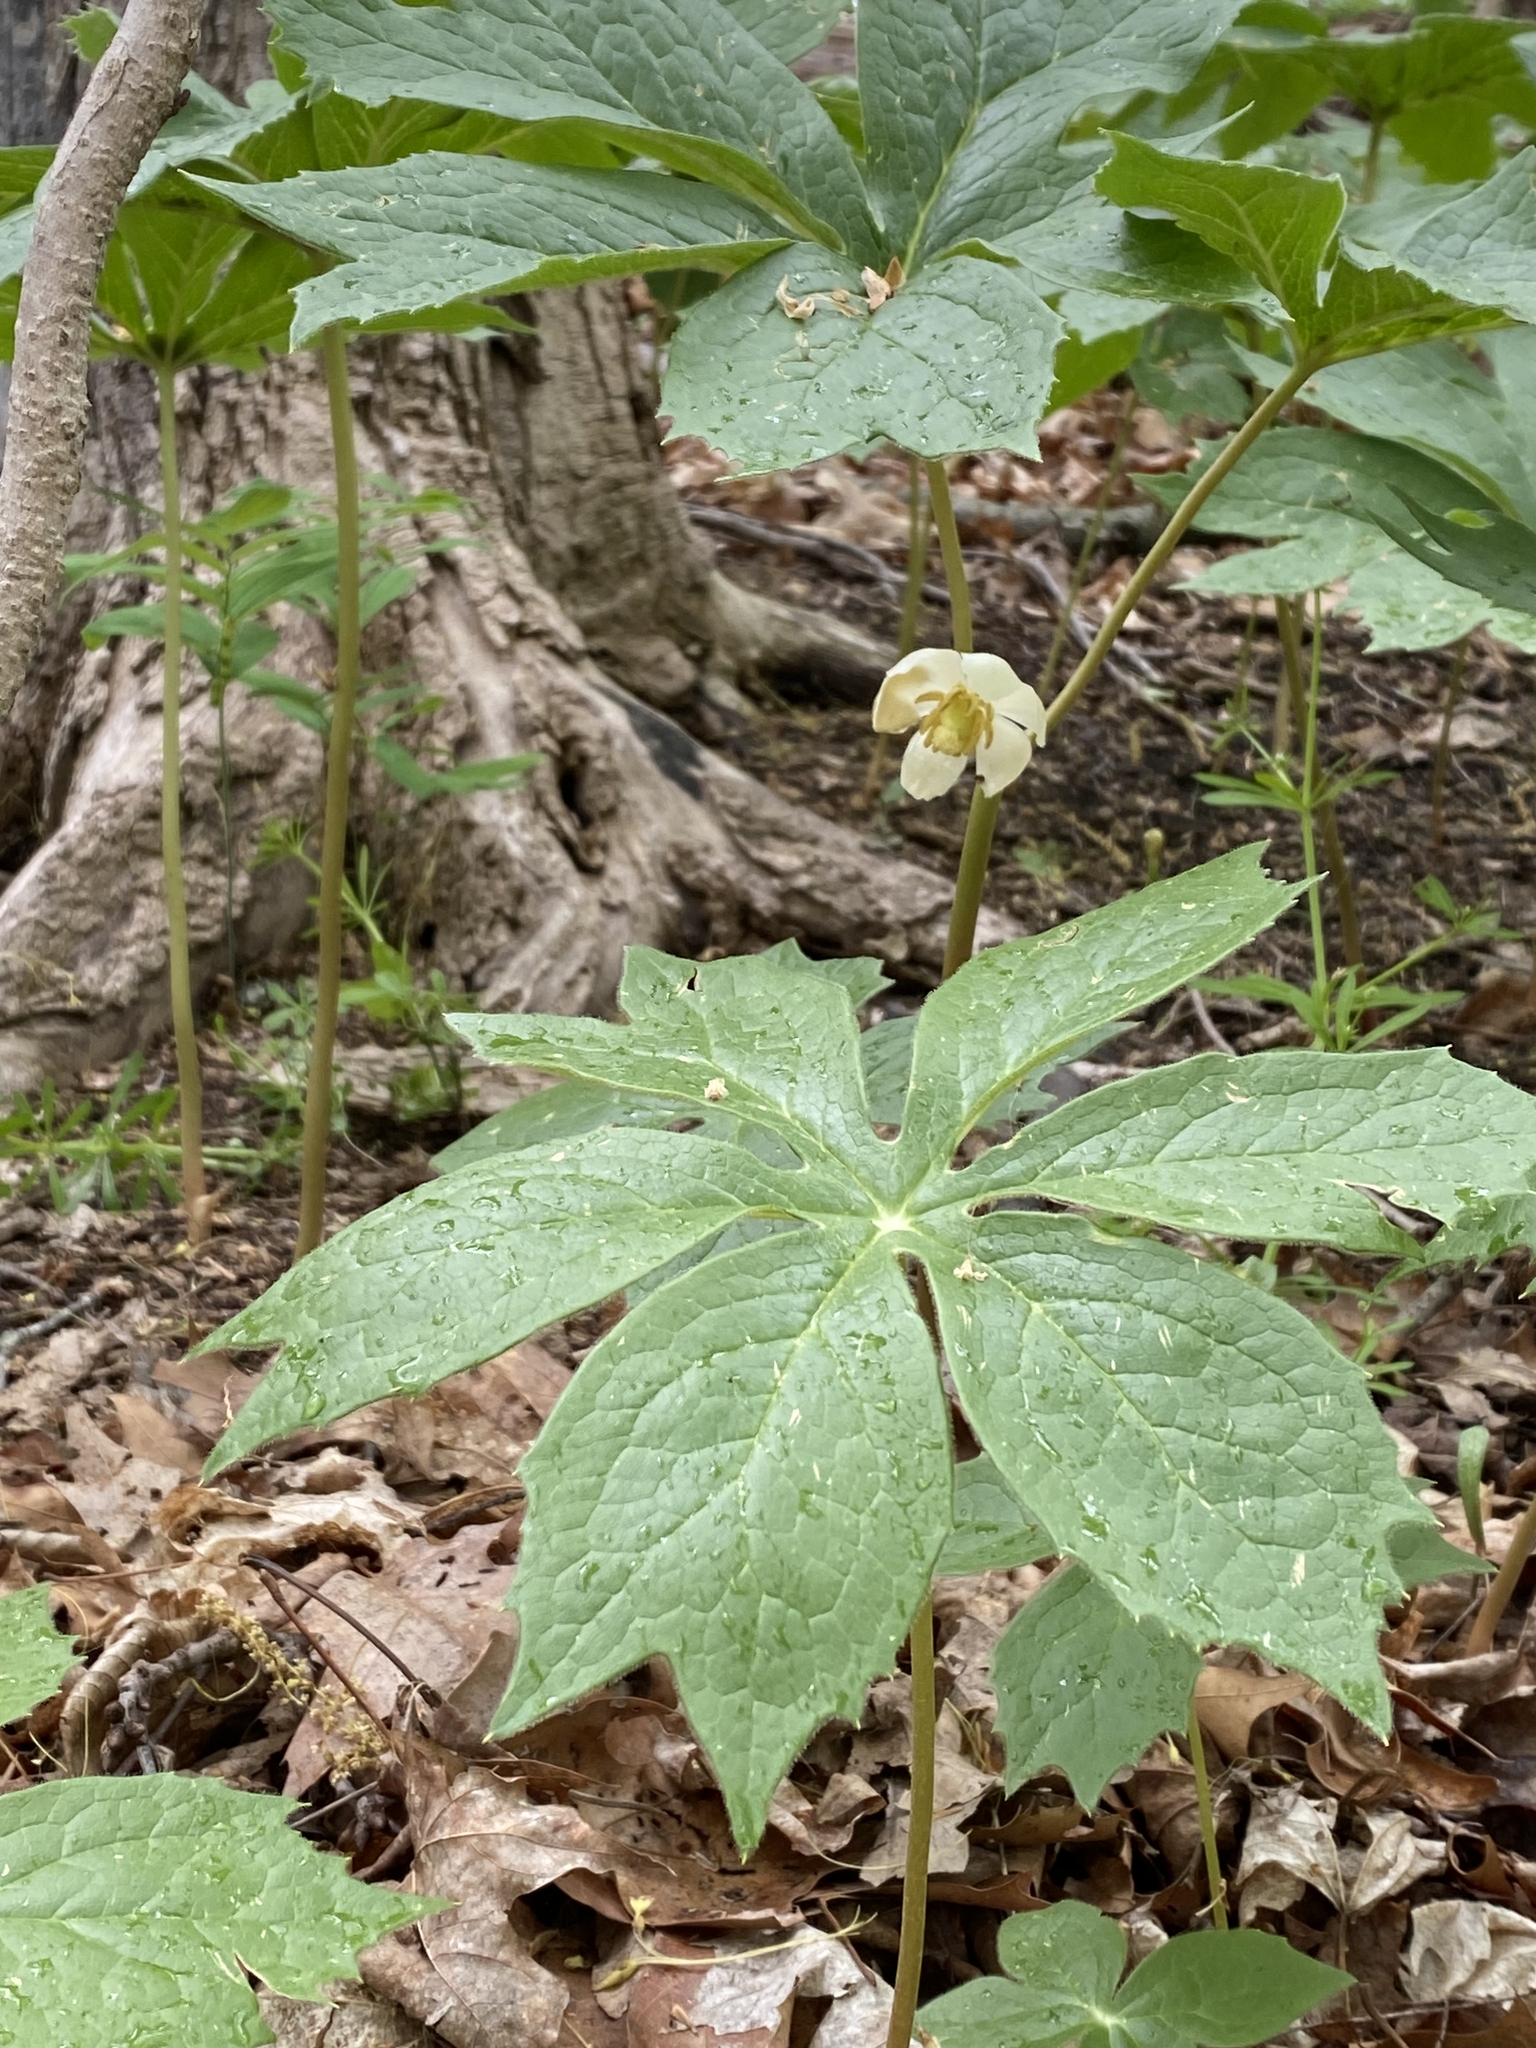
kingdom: Plantae
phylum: Tracheophyta
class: Magnoliopsida
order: Ranunculales
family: Berberidaceae
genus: Podophyllum
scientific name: Podophyllum peltatum
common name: Wild mandrake
